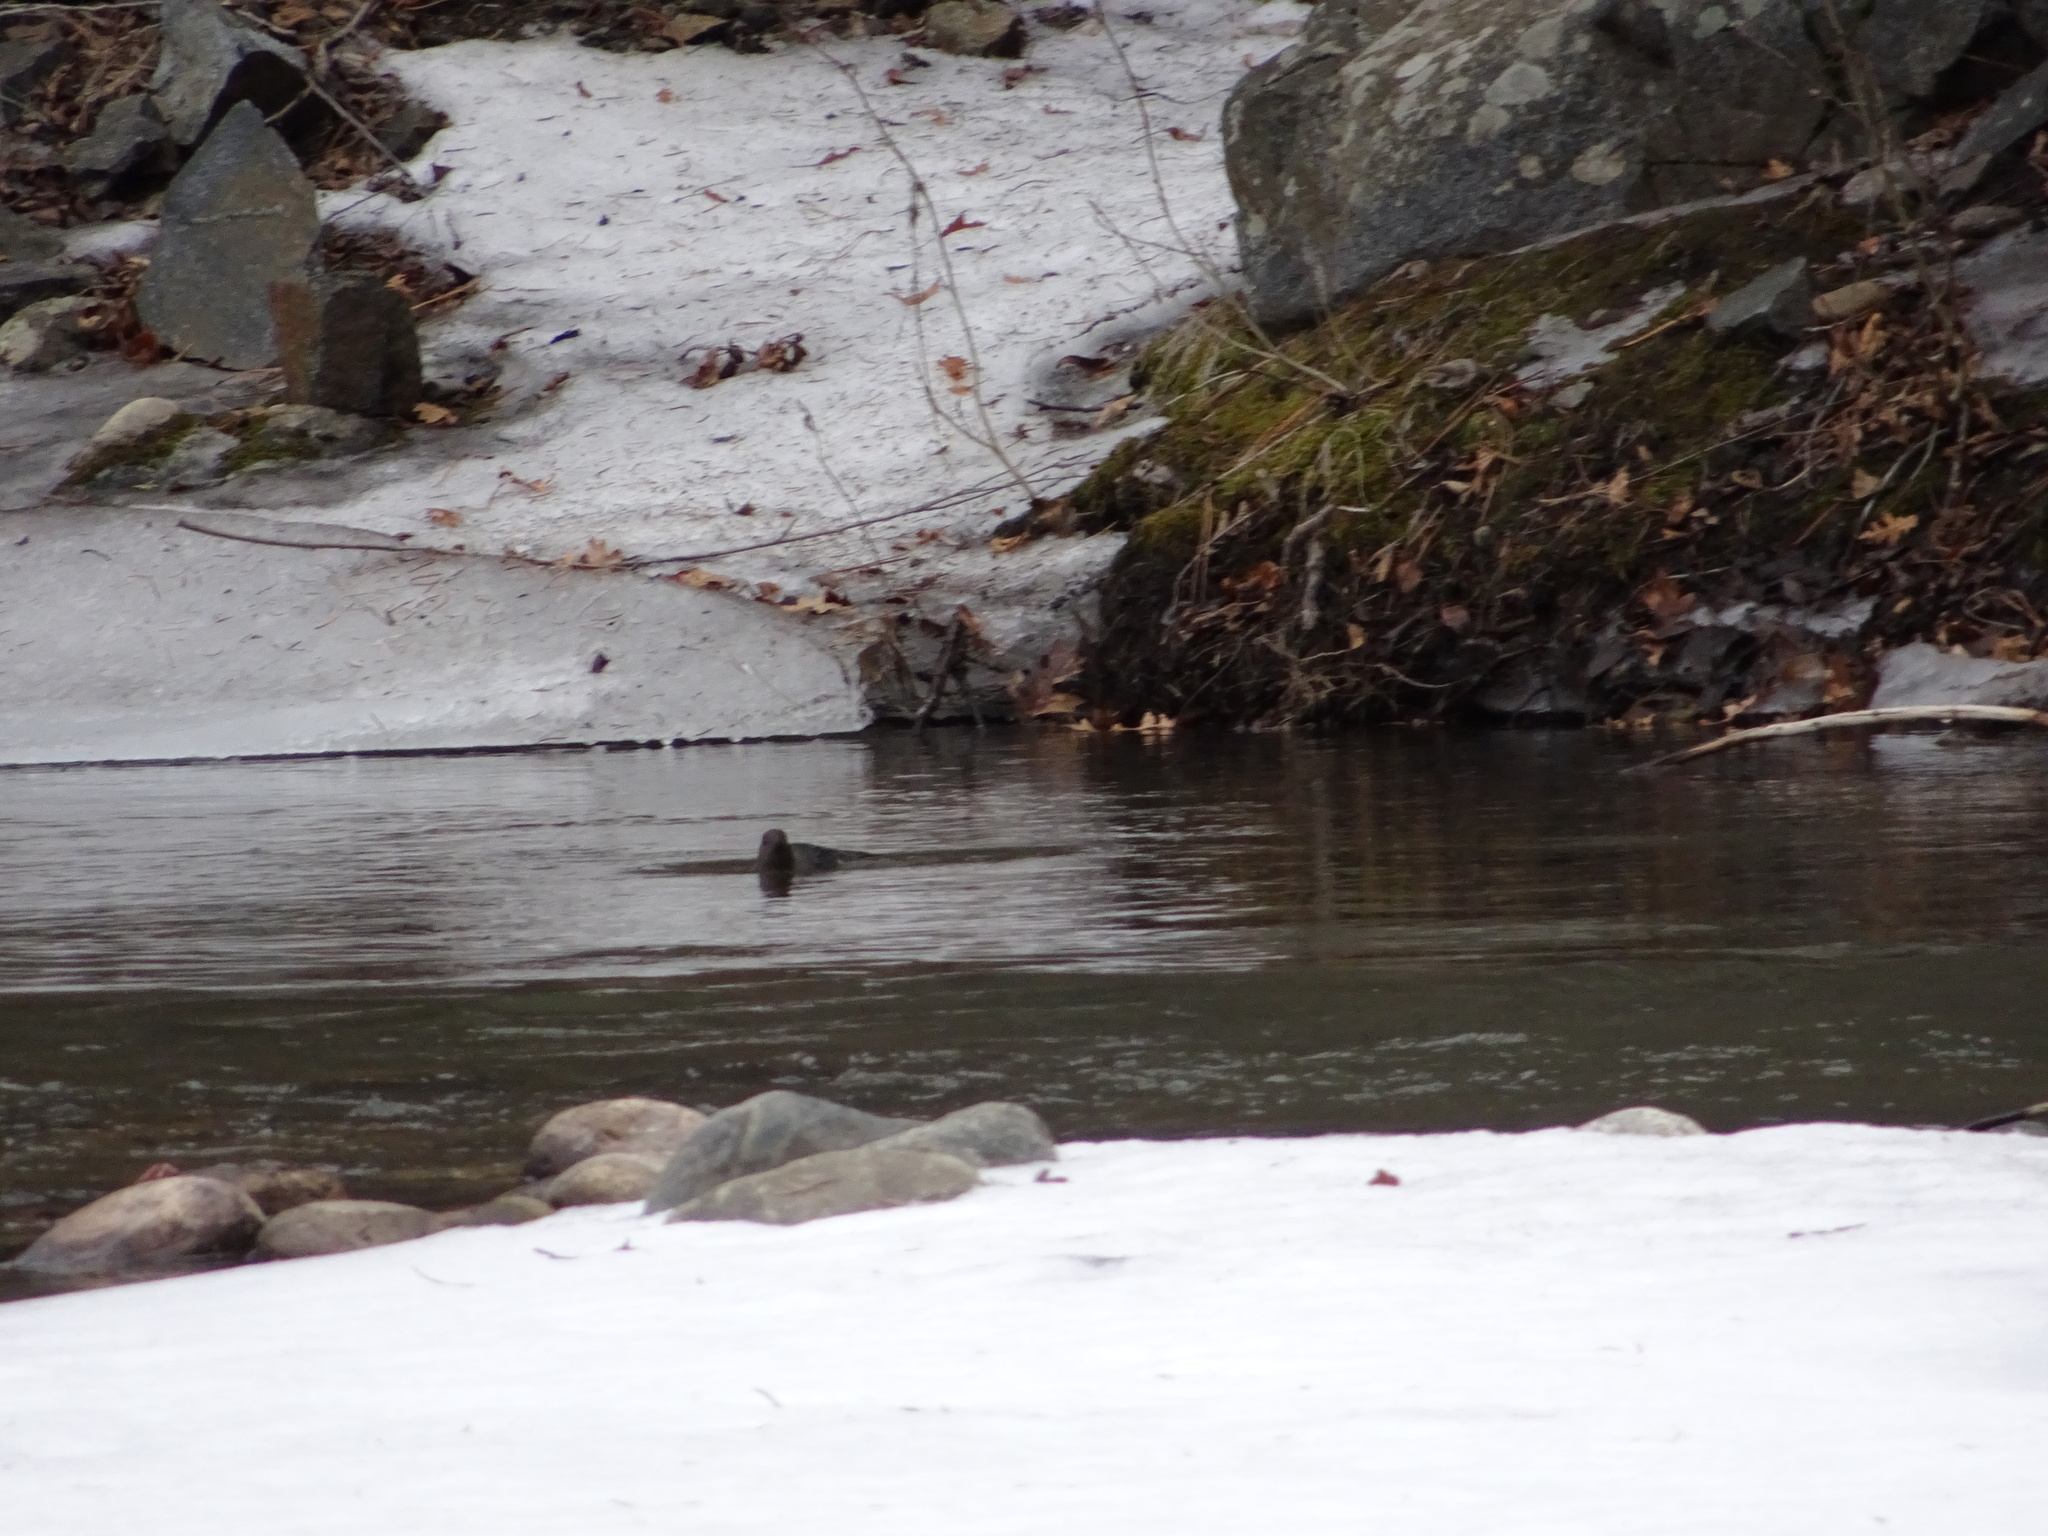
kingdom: Animalia
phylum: Chordata
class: Aves
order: Passeriformes
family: Cinclidae
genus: Cinclus
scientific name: Cinclus mexicanus
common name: American dipper
